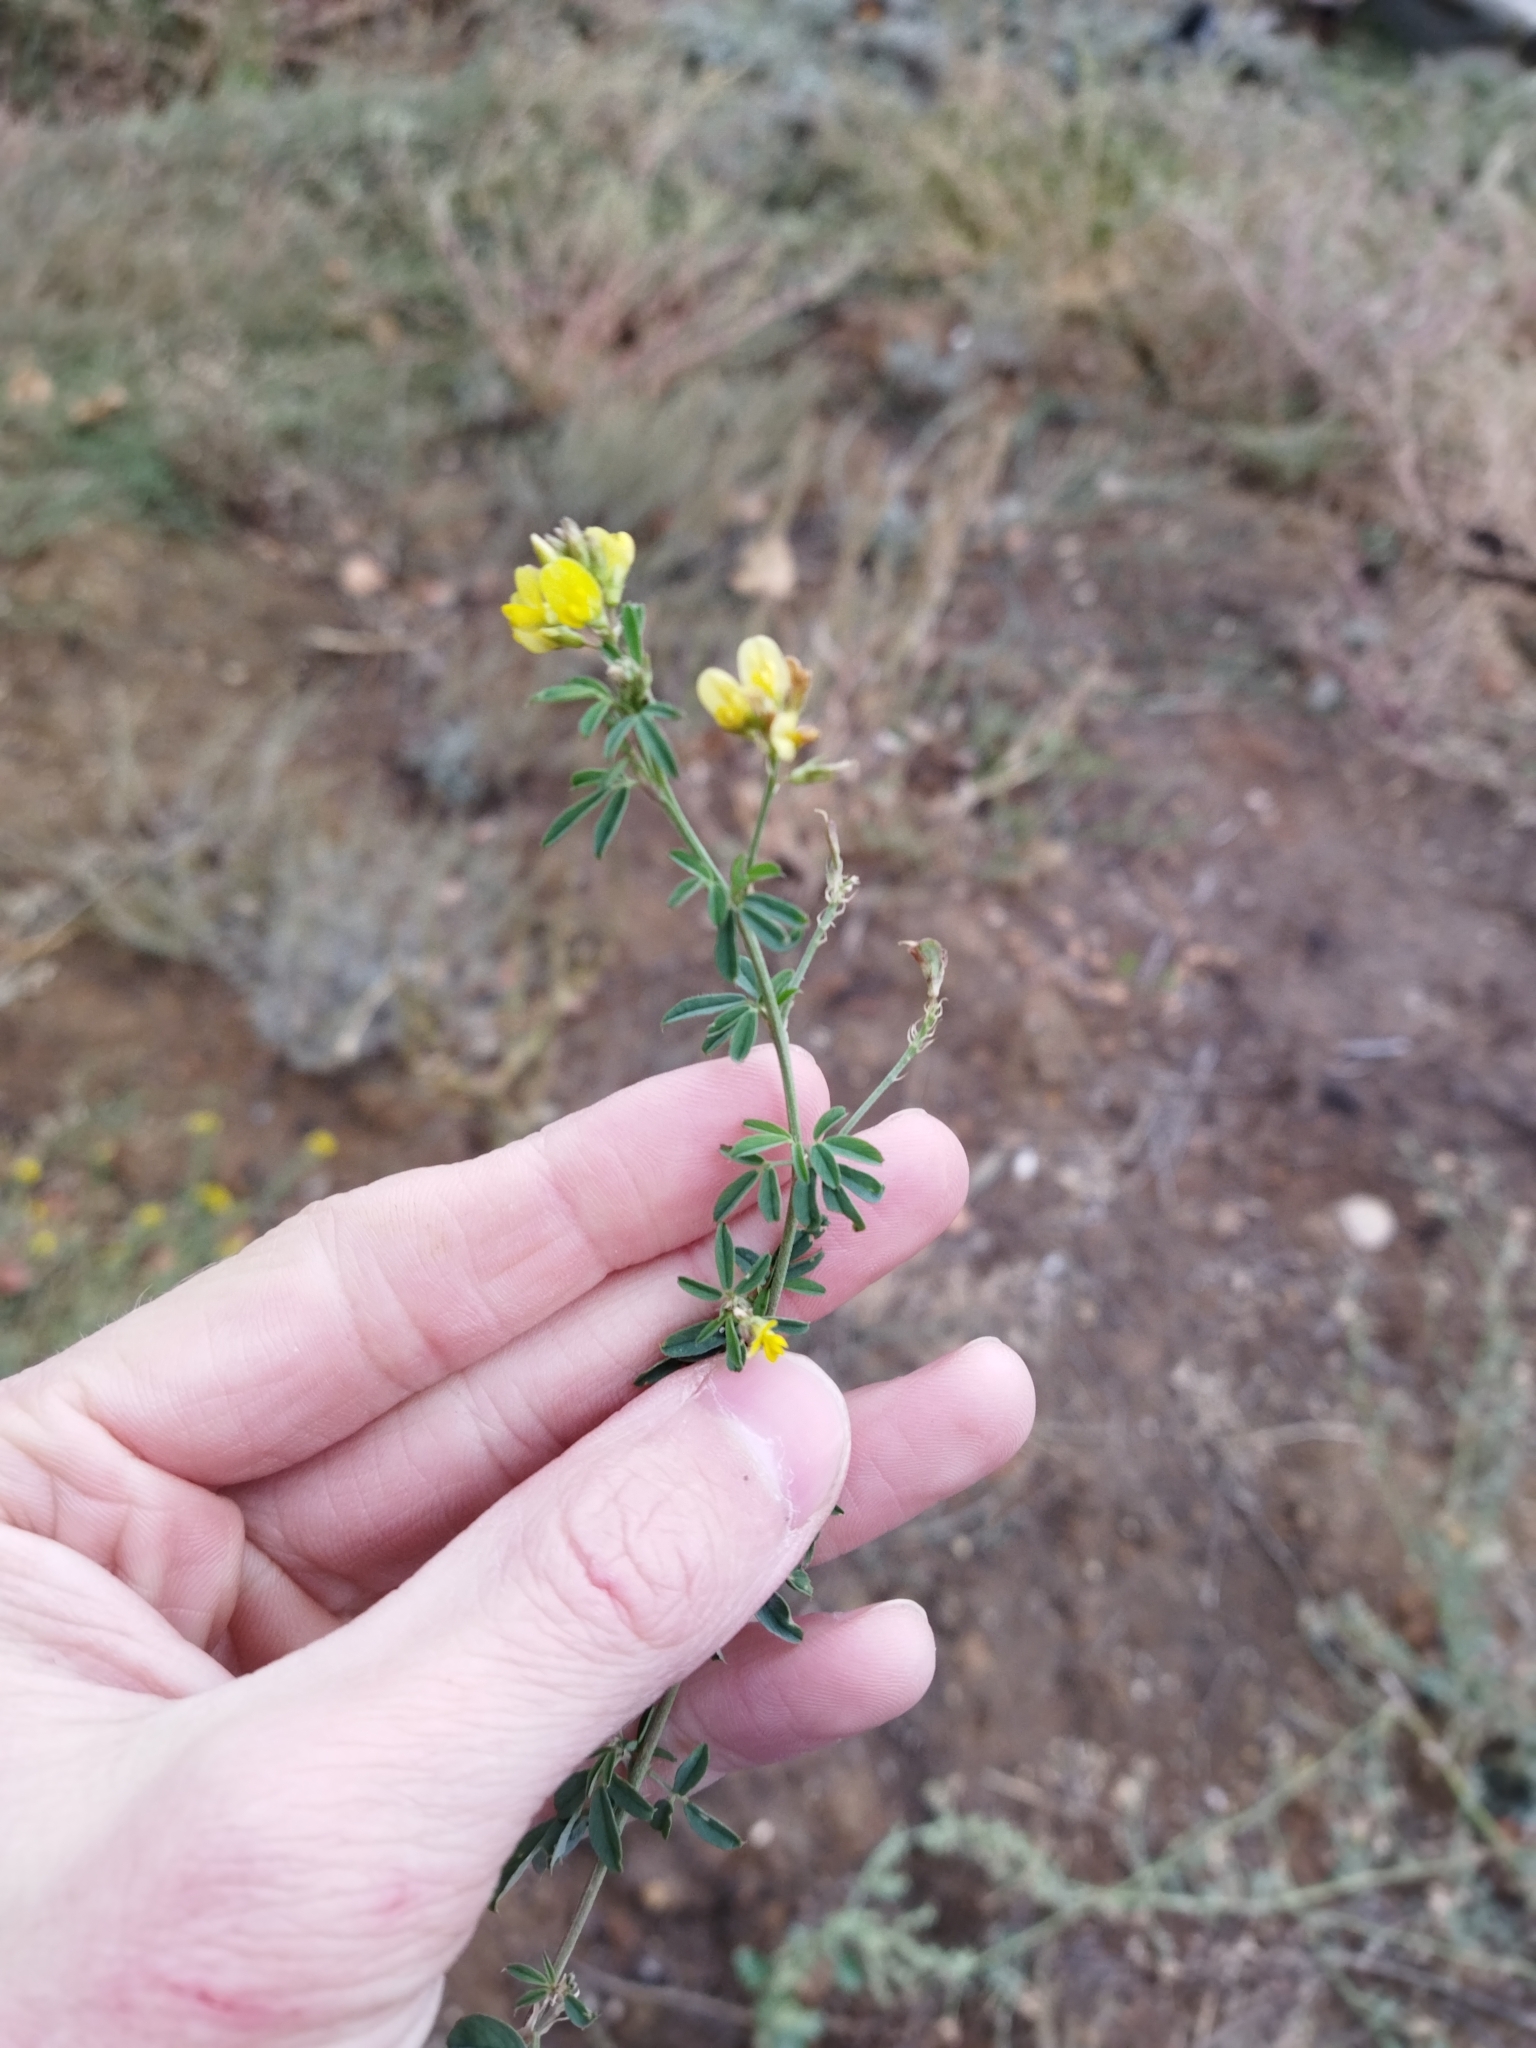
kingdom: Plantae
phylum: Tracheophyta
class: Magnoliopsida
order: Fabales
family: Fabaceae
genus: Medicago
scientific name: Medicago falcata
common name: Sickle medick
